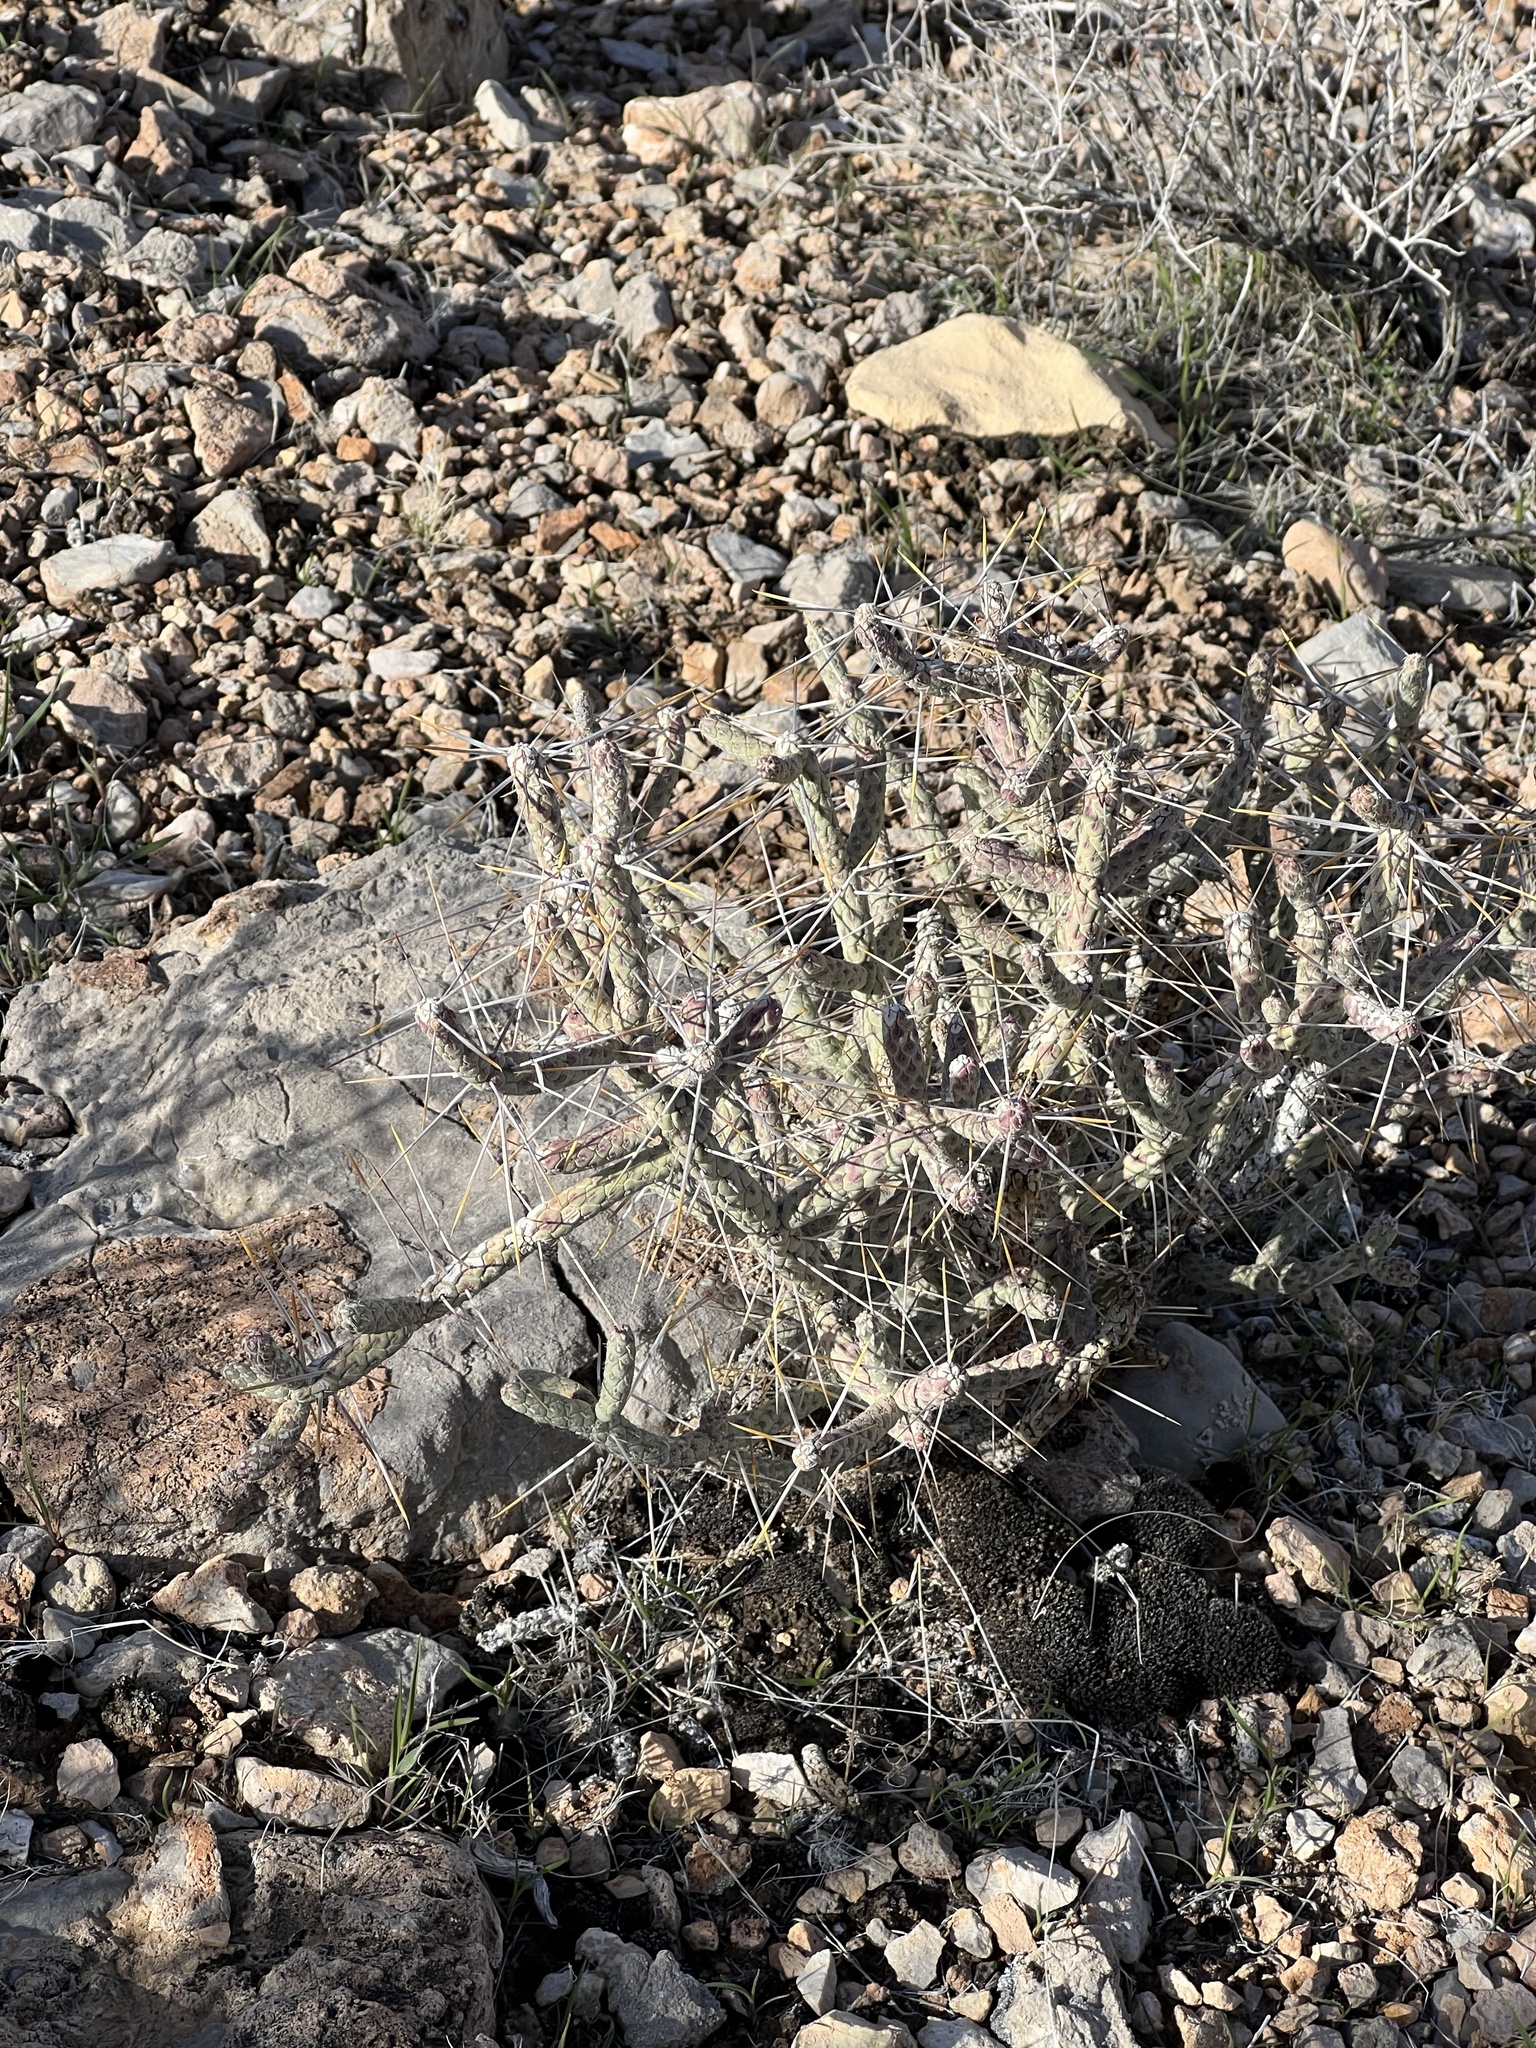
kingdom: Plantae
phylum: Tracheophyta
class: Magnoliopsida
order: Caryophyllales
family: Cactaceae
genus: Cylindropuntia
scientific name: Cylindropuntia ramosissima
